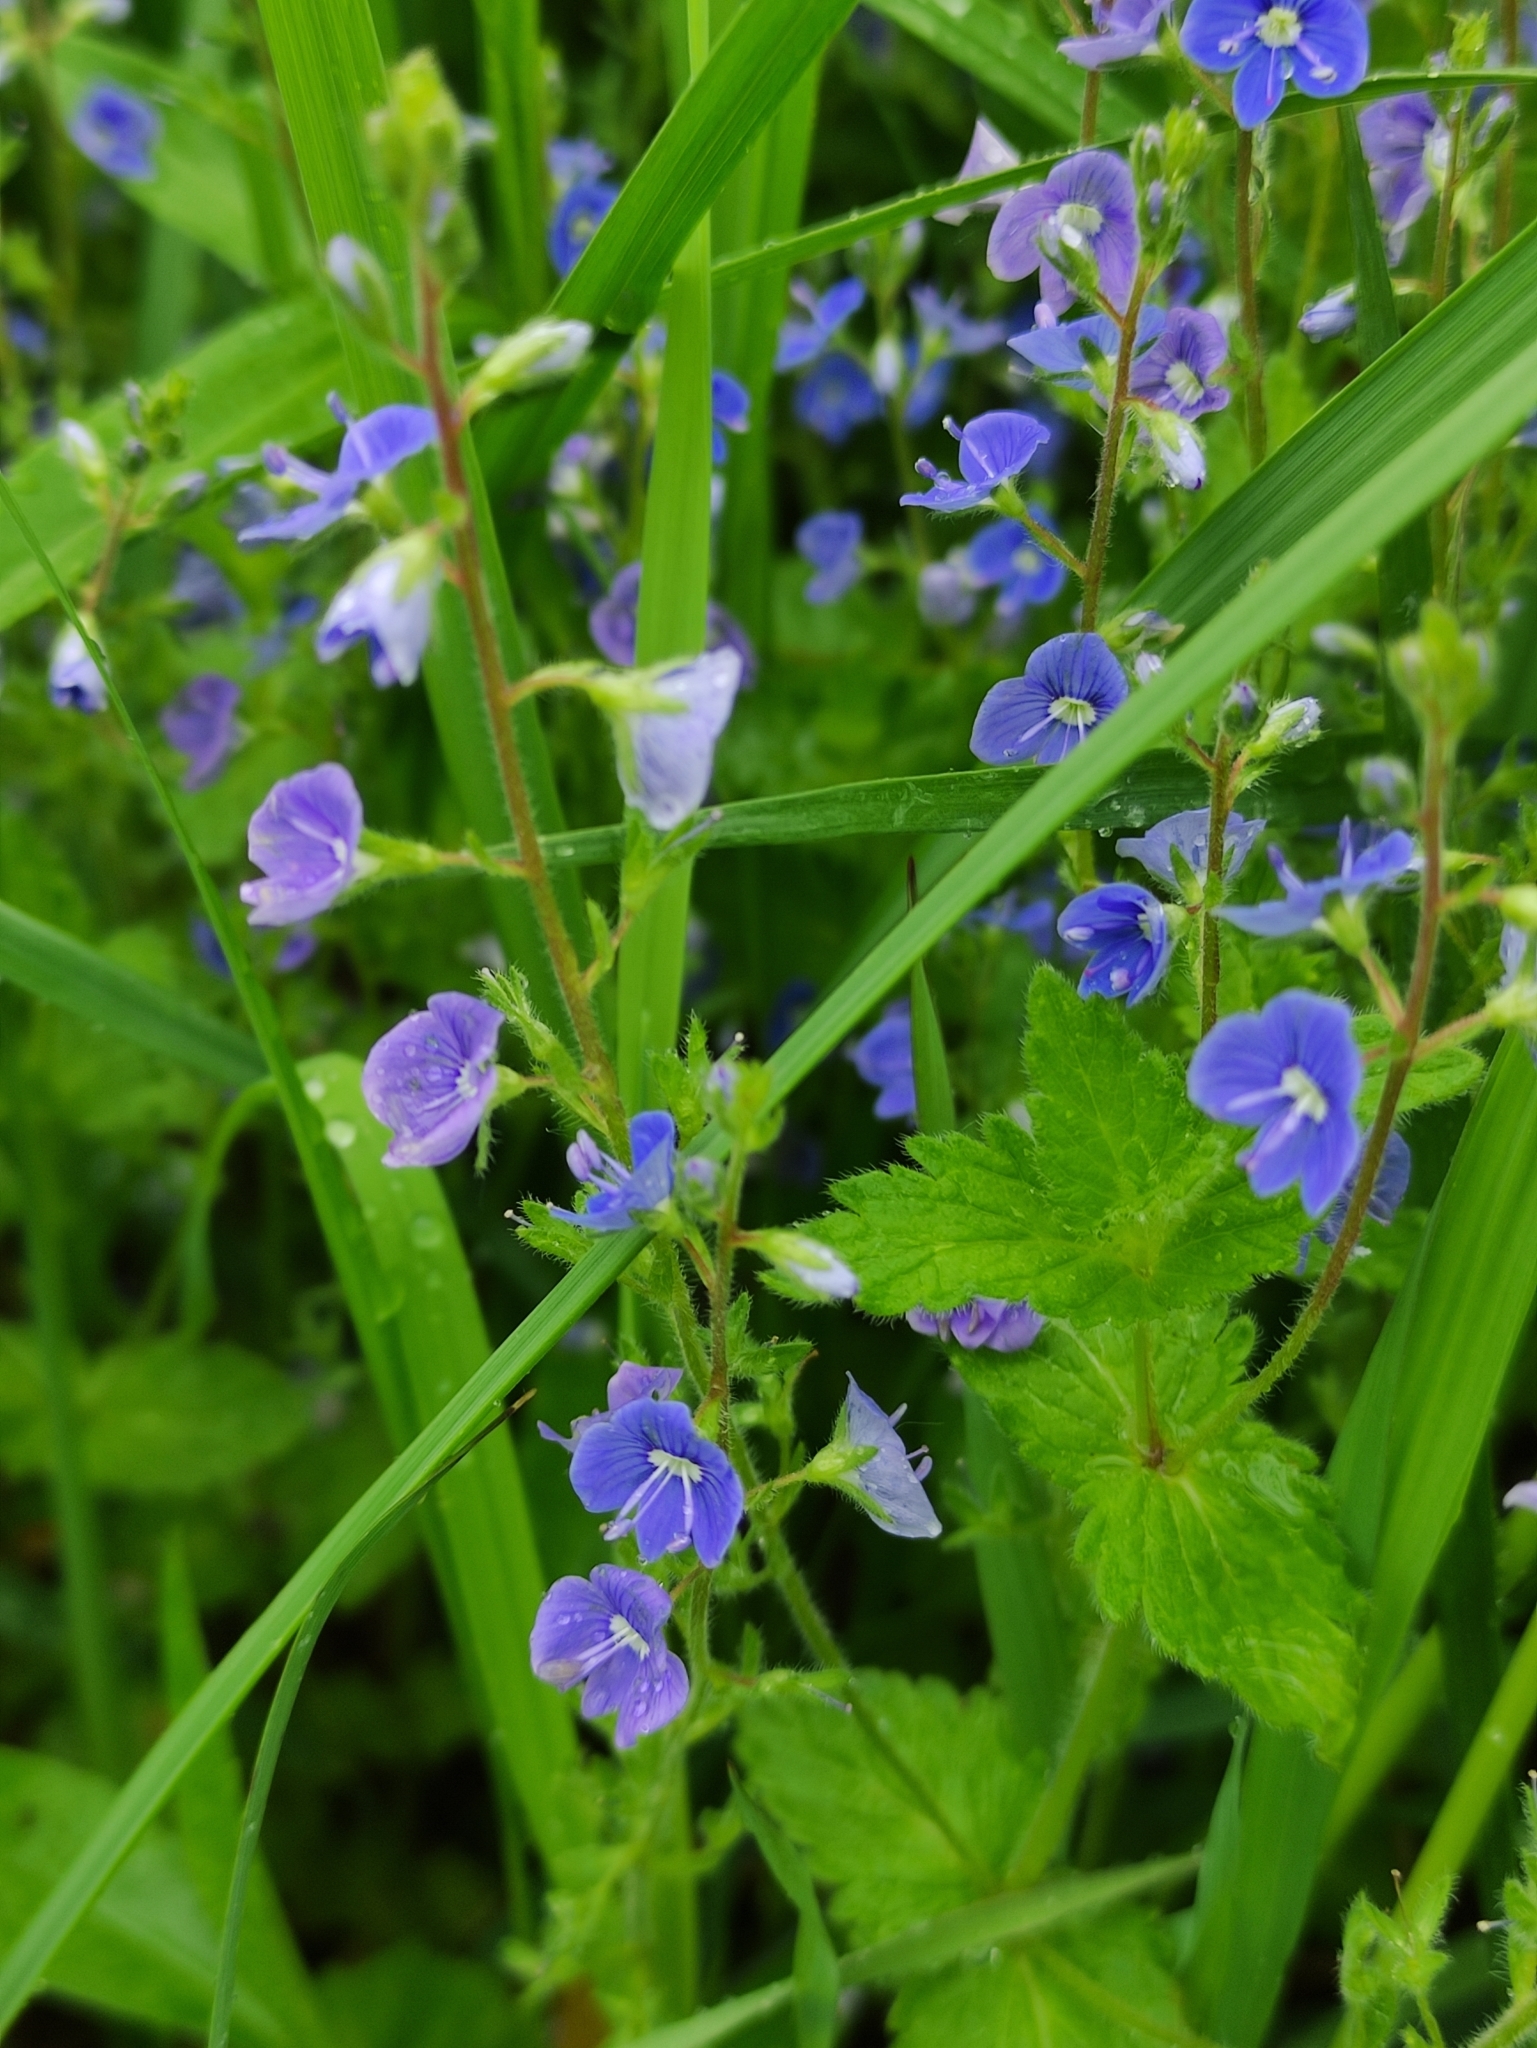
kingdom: Plantae
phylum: Tracheophyta
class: Magnoliopsida
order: Lamiales
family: Plantaginaceae
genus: Veronica
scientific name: Veronica chamaedrys
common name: Germander speedwell
